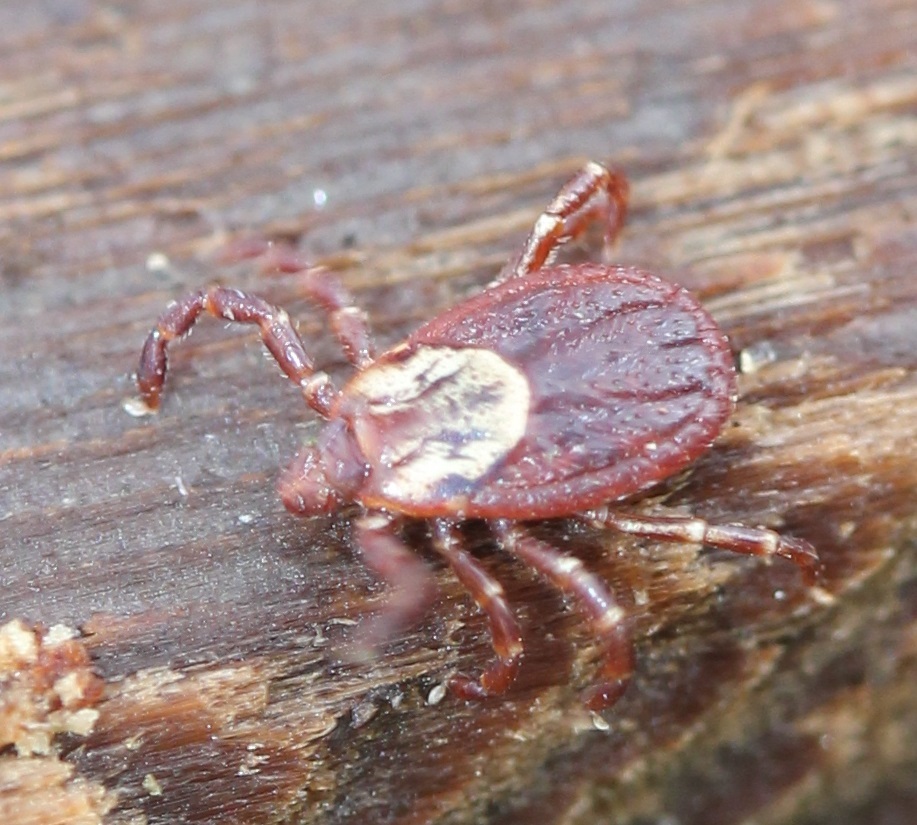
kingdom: Animalia
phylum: Arthropoda
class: Arachnida
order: Ixodida
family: Ixodidae
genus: Dermacentor
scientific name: Dermacentor variabilis
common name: American dog tick
